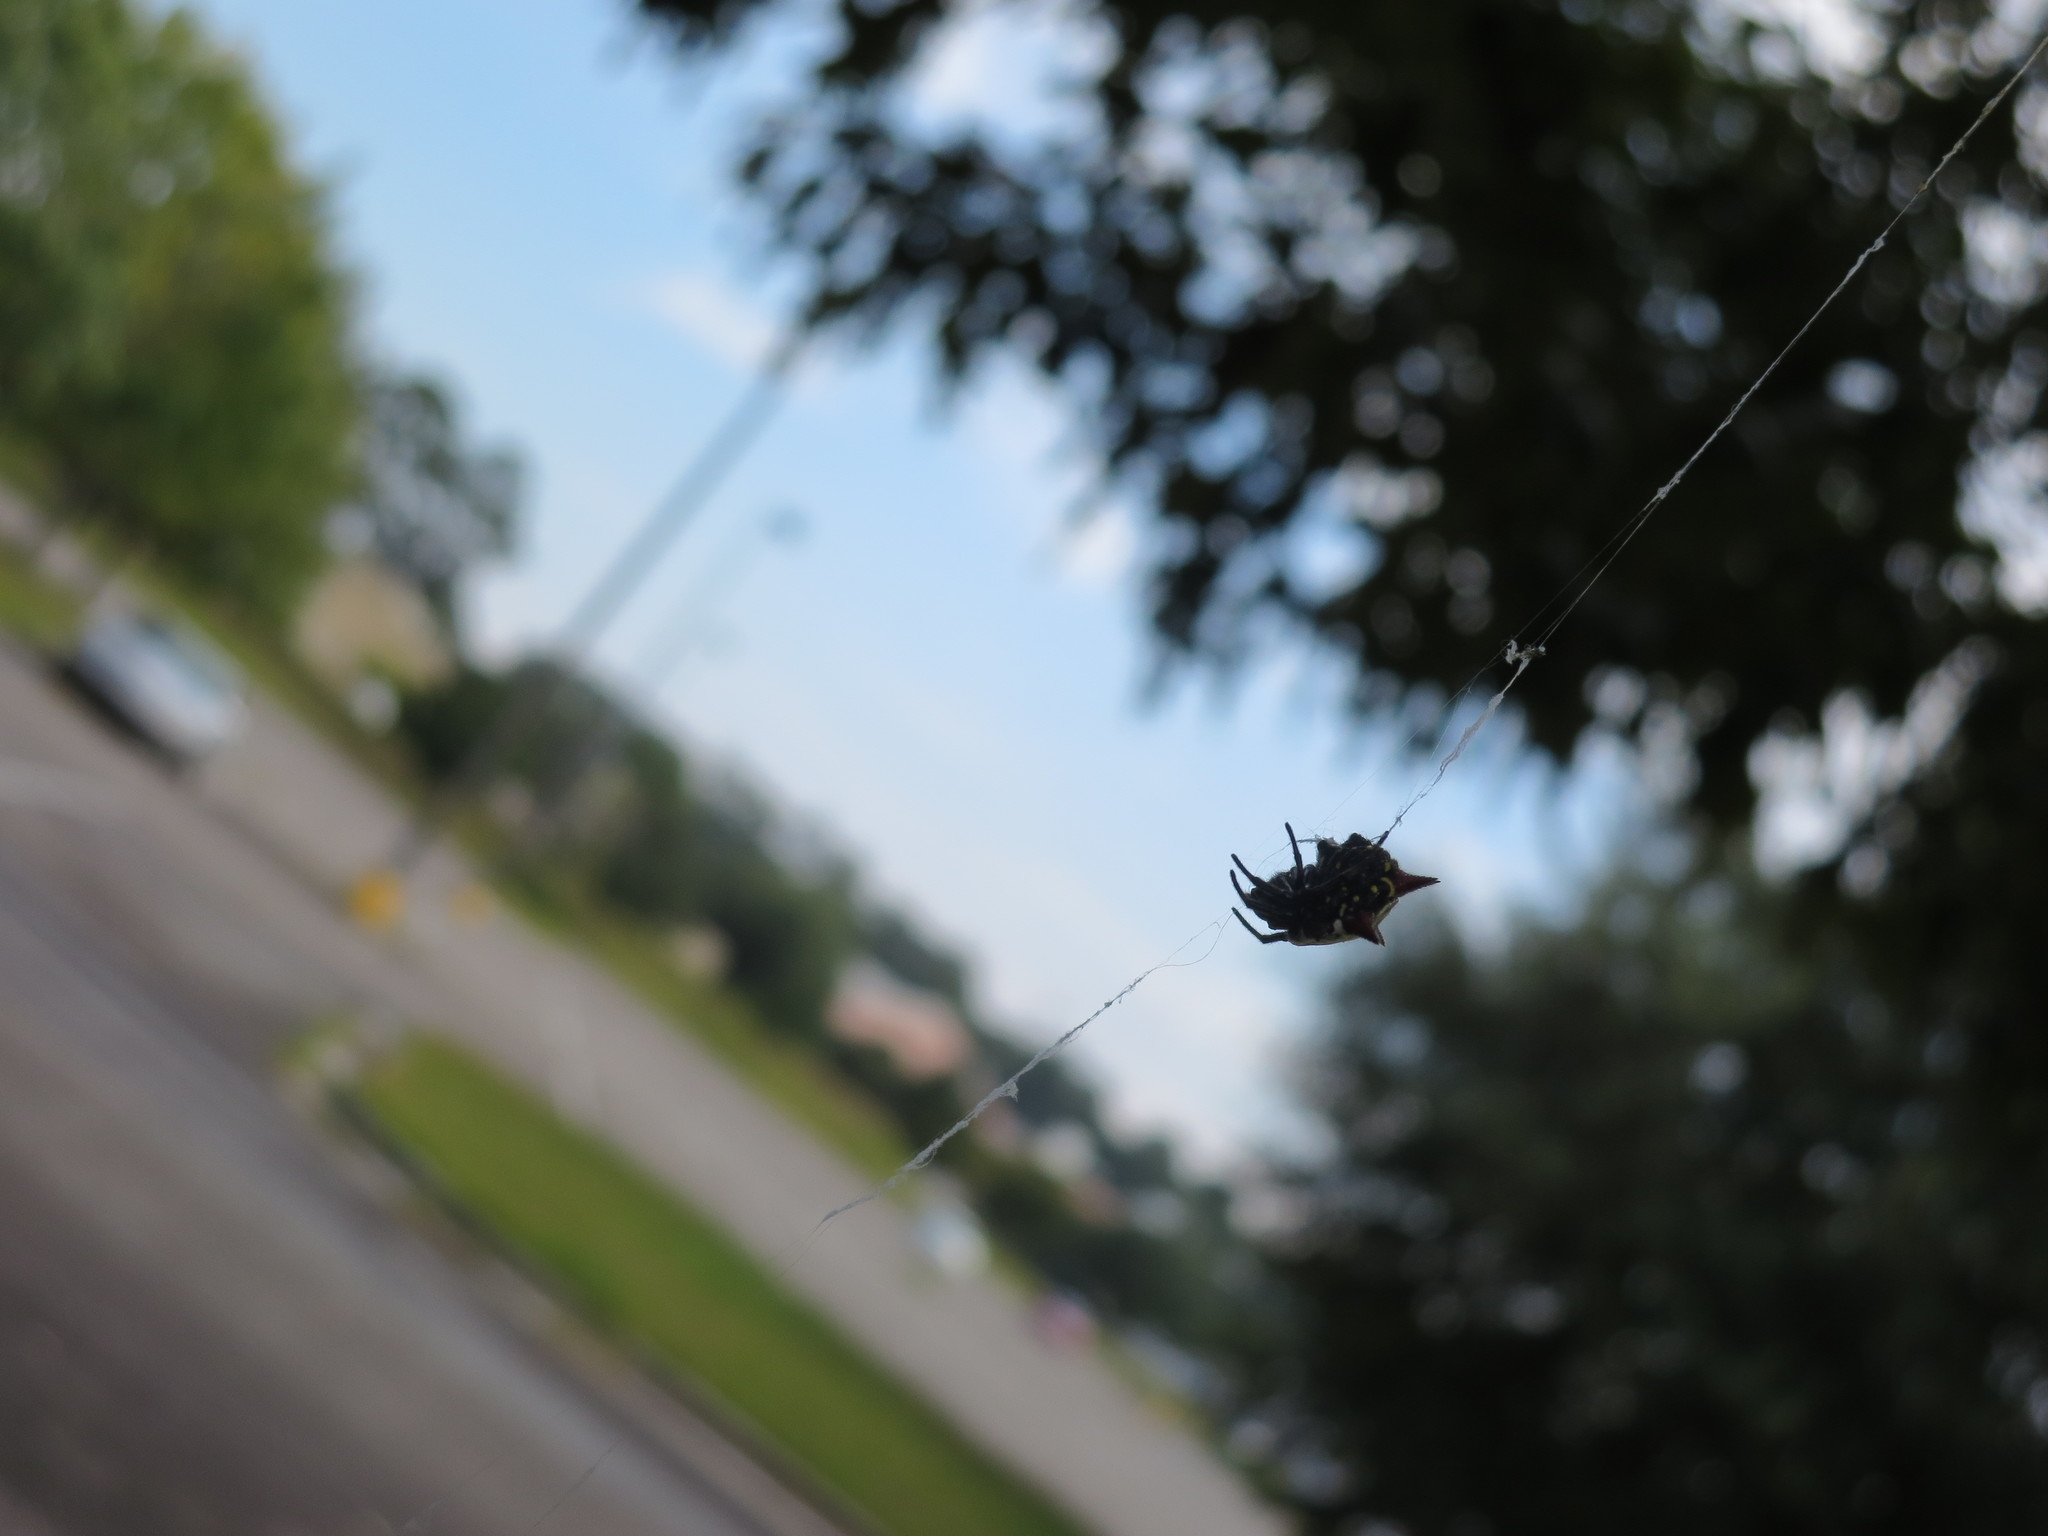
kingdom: Animalia
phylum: Arthropoda
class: Arachnida
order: Araneae
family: Araneidae
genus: Gasteracantha
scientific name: Gasteracantha cancriformis
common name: Orb weavers
